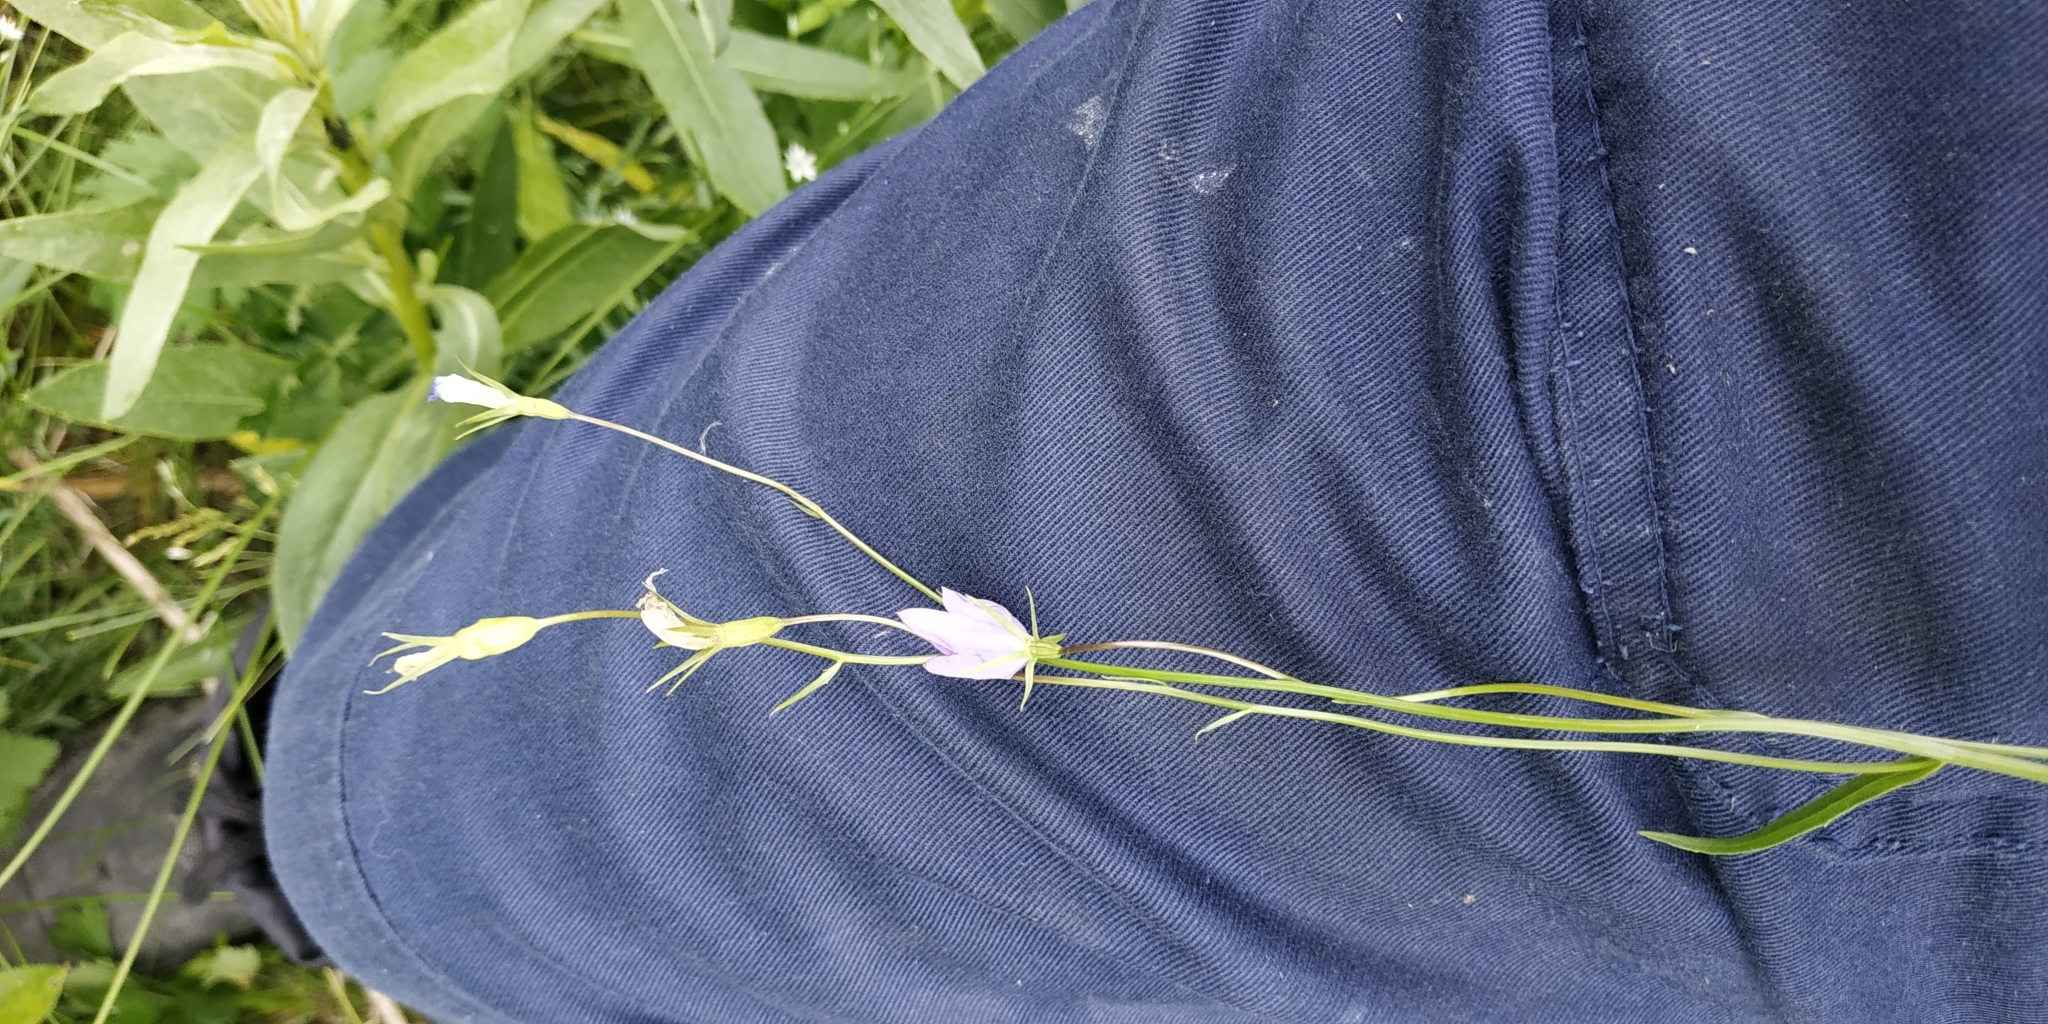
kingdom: Plantae
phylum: Tracheophyta
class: Magnoliopsida
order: Asterales
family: Campanulaceae
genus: Campanula
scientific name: Campanula stevenii
